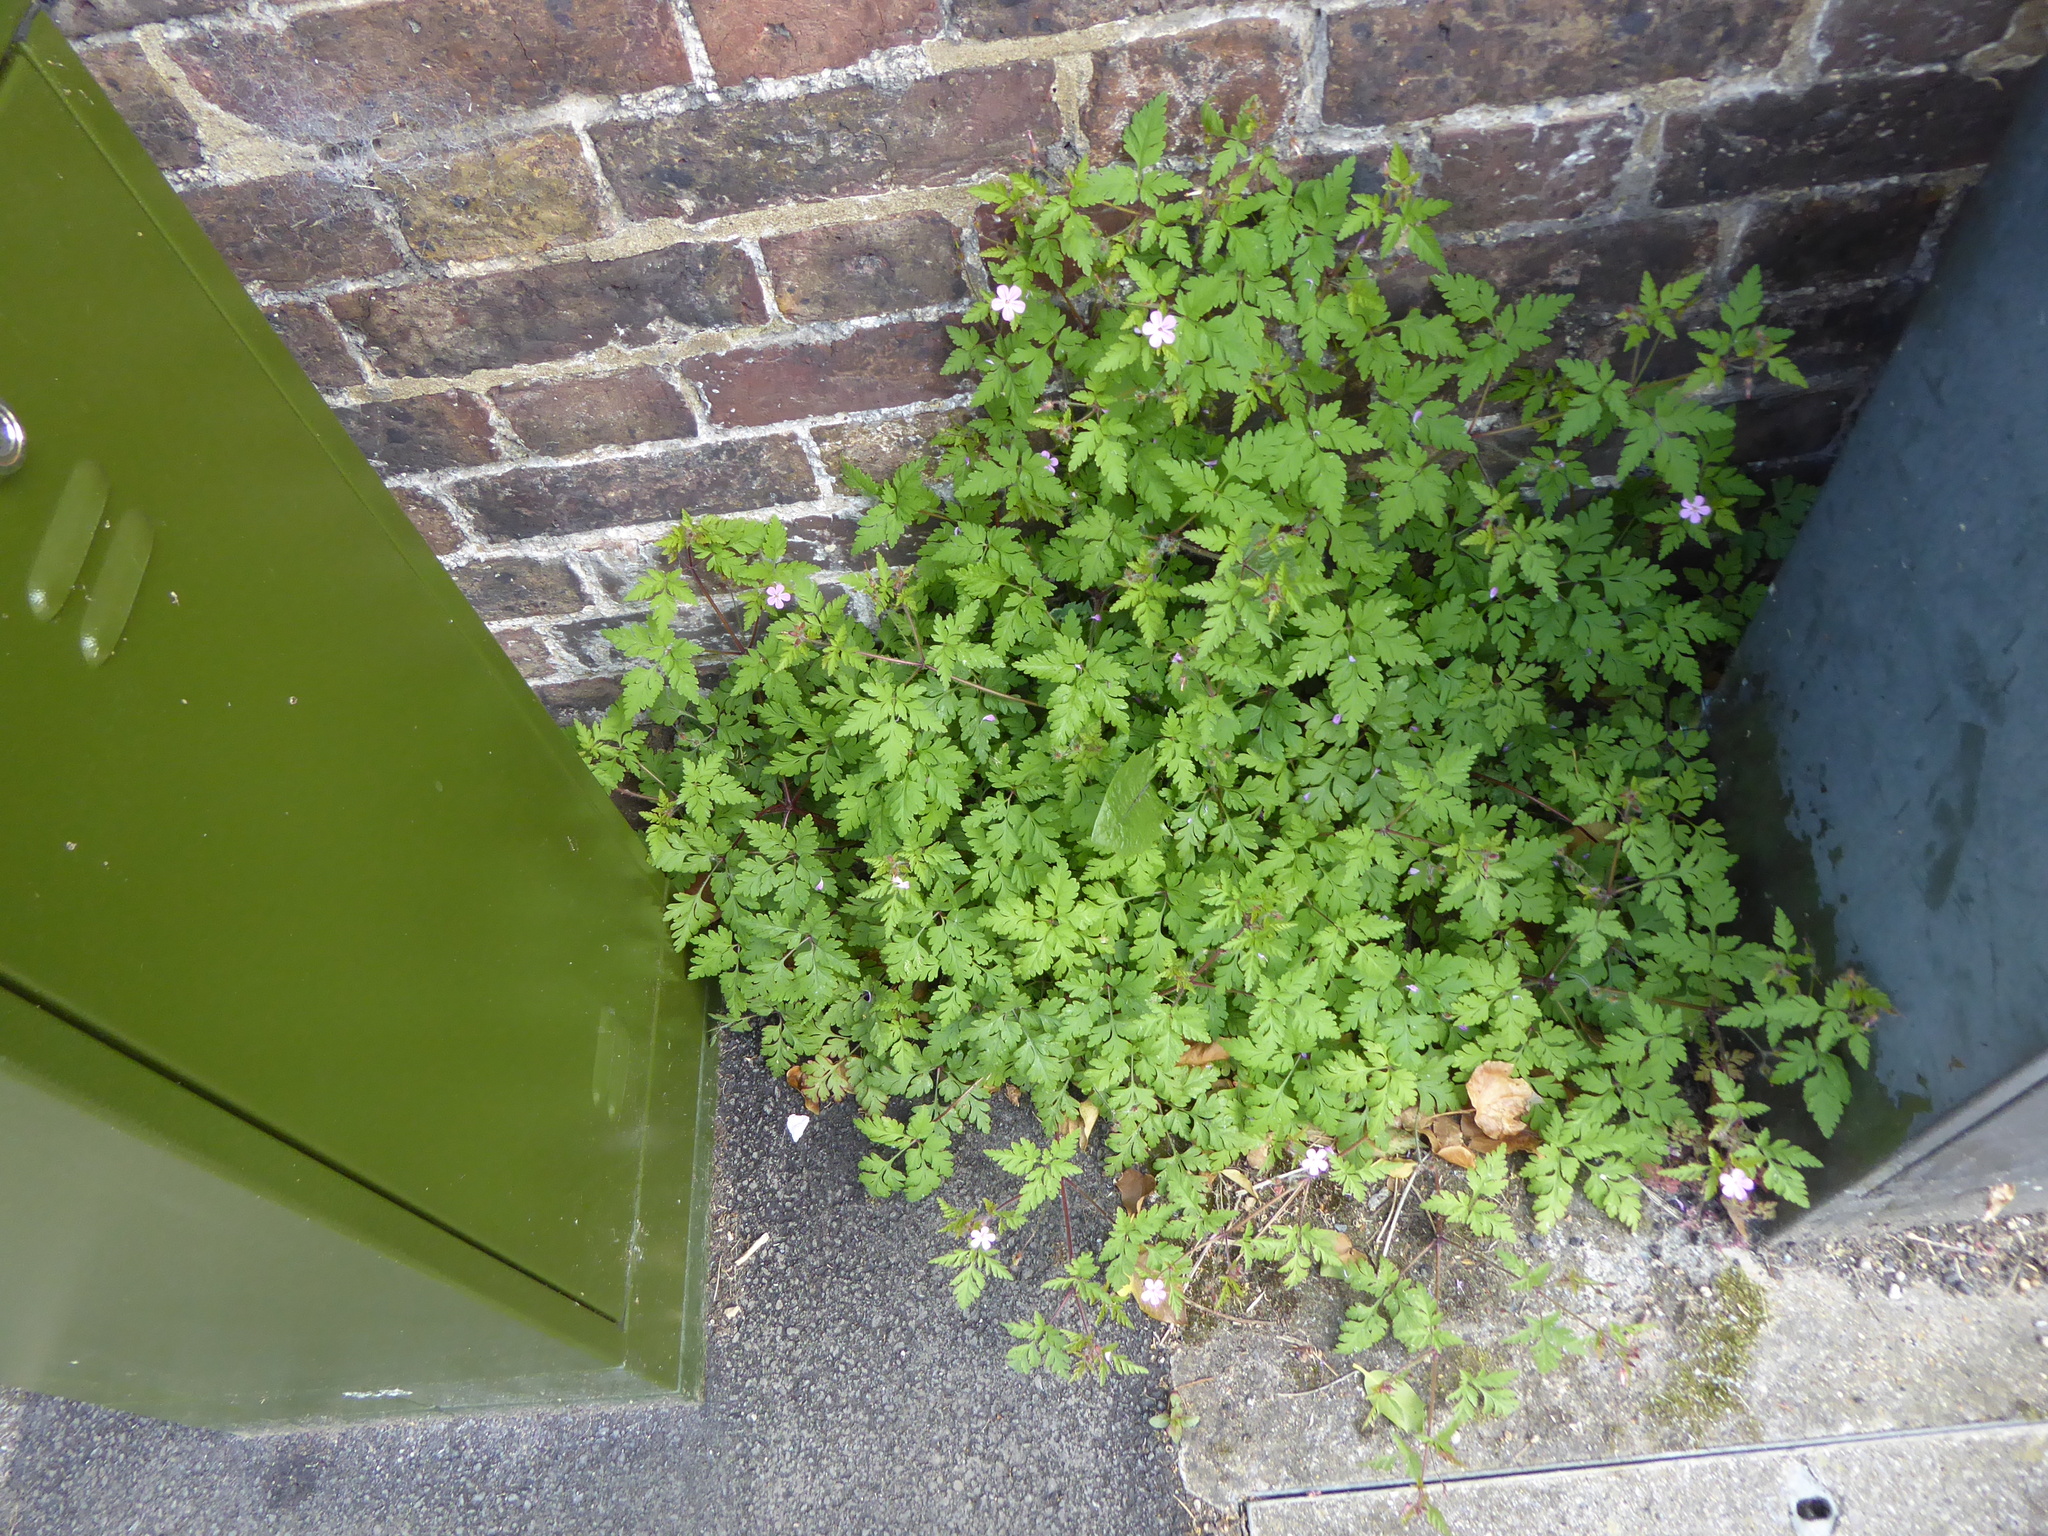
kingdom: Plantae
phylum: Tracheophyta
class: Magnoliopsida
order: Geraniales
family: Geraniaceae
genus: Geranium
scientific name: Geranium robertianum
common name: Herb-robert
